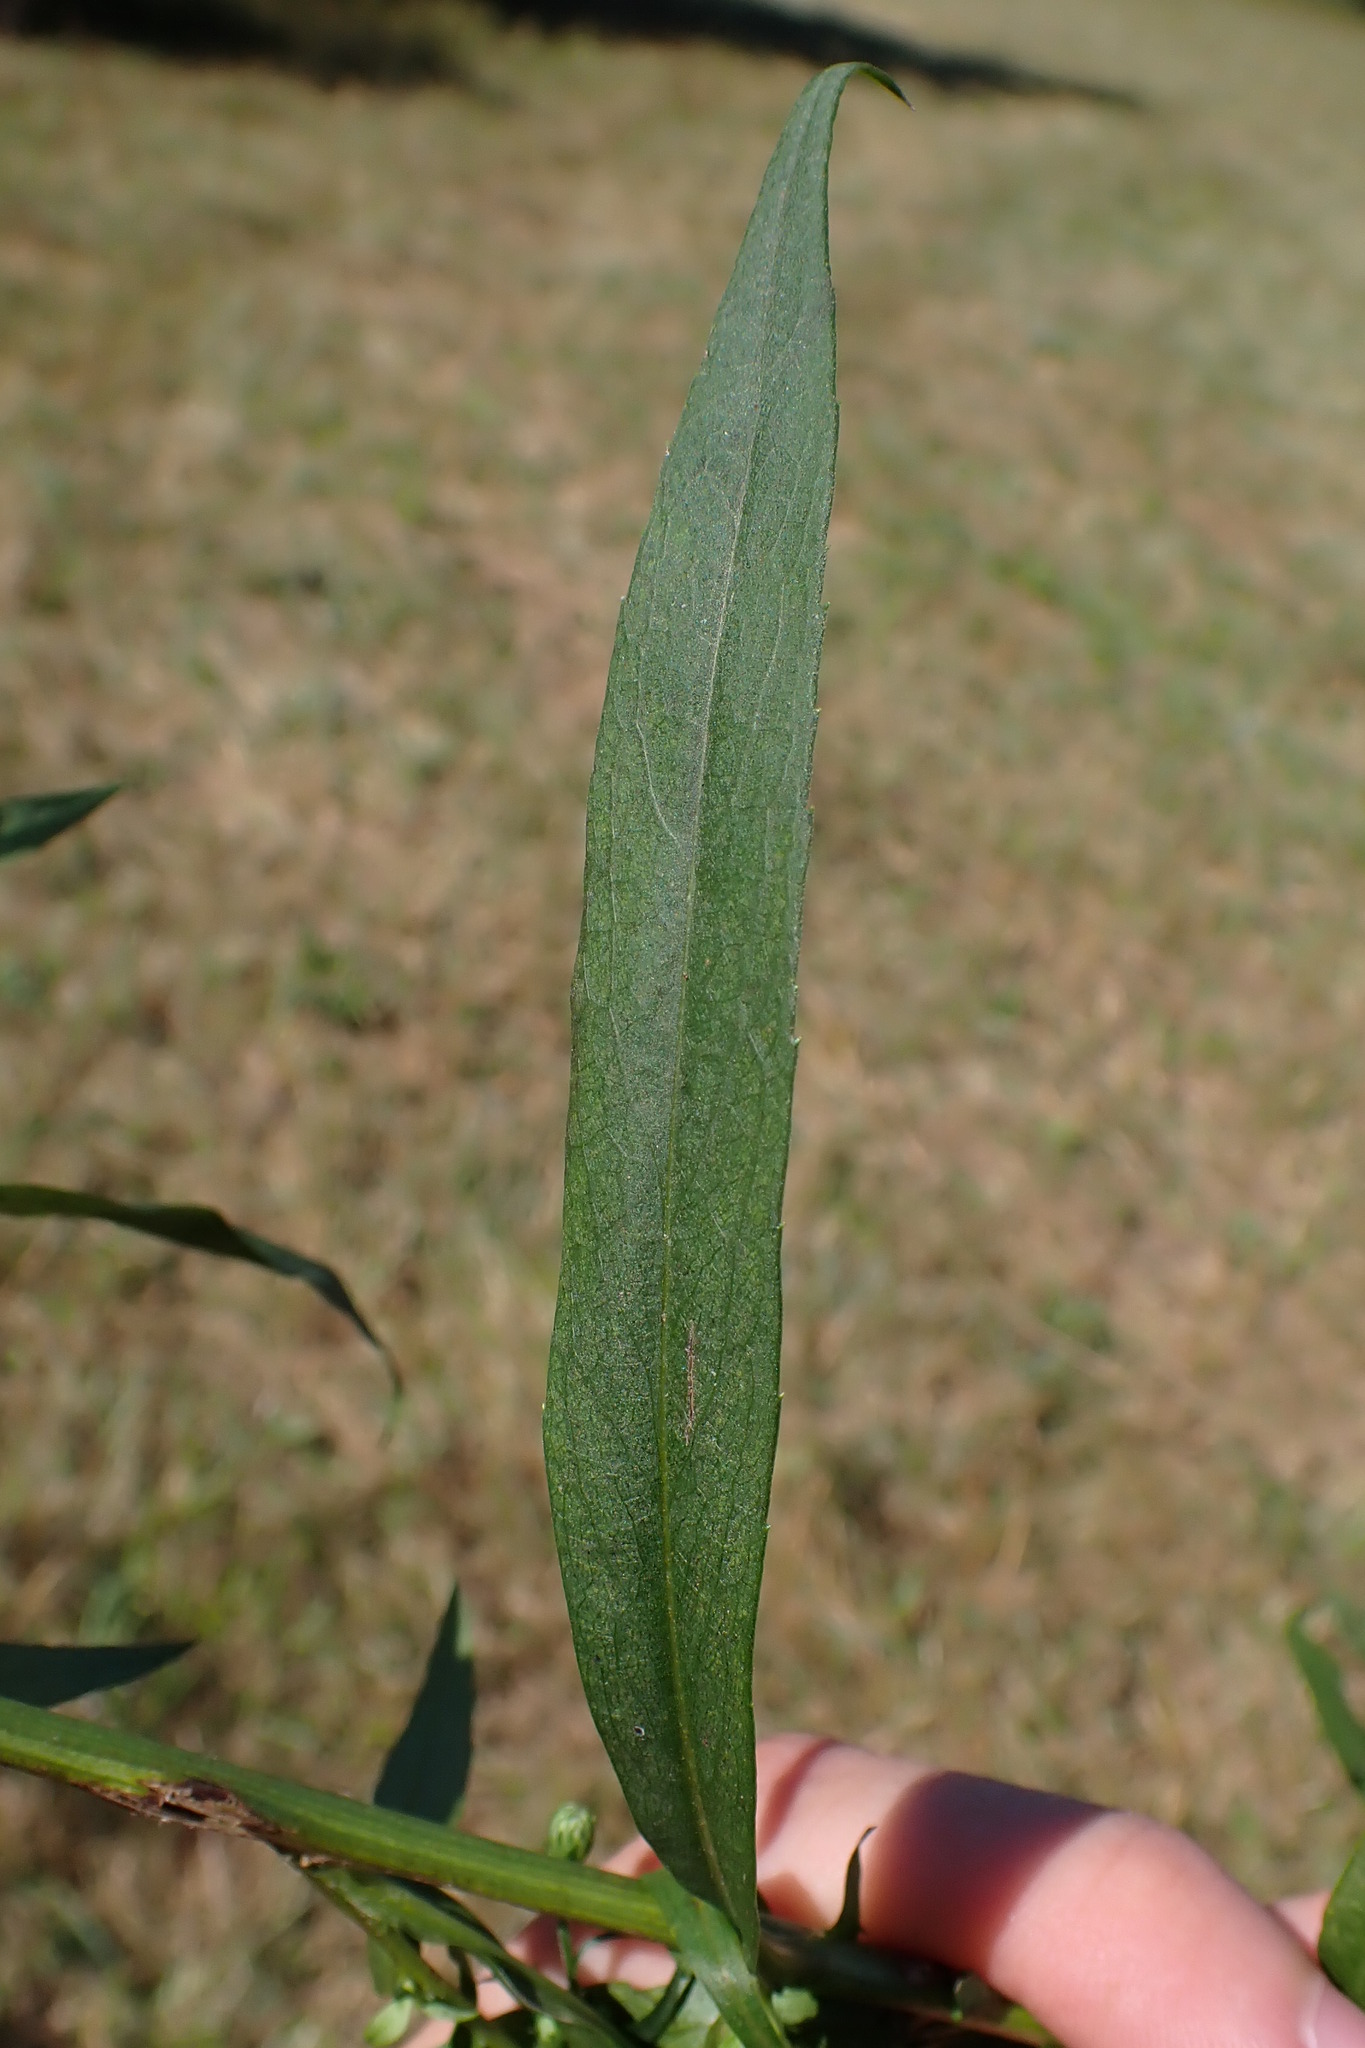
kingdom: Plantae
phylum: Tracheophyta
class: Magnoliopsida
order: Asterales
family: Asteraceae
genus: Symphyotrichum
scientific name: Symphyotrichum lanceolatum
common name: Panicled aster
